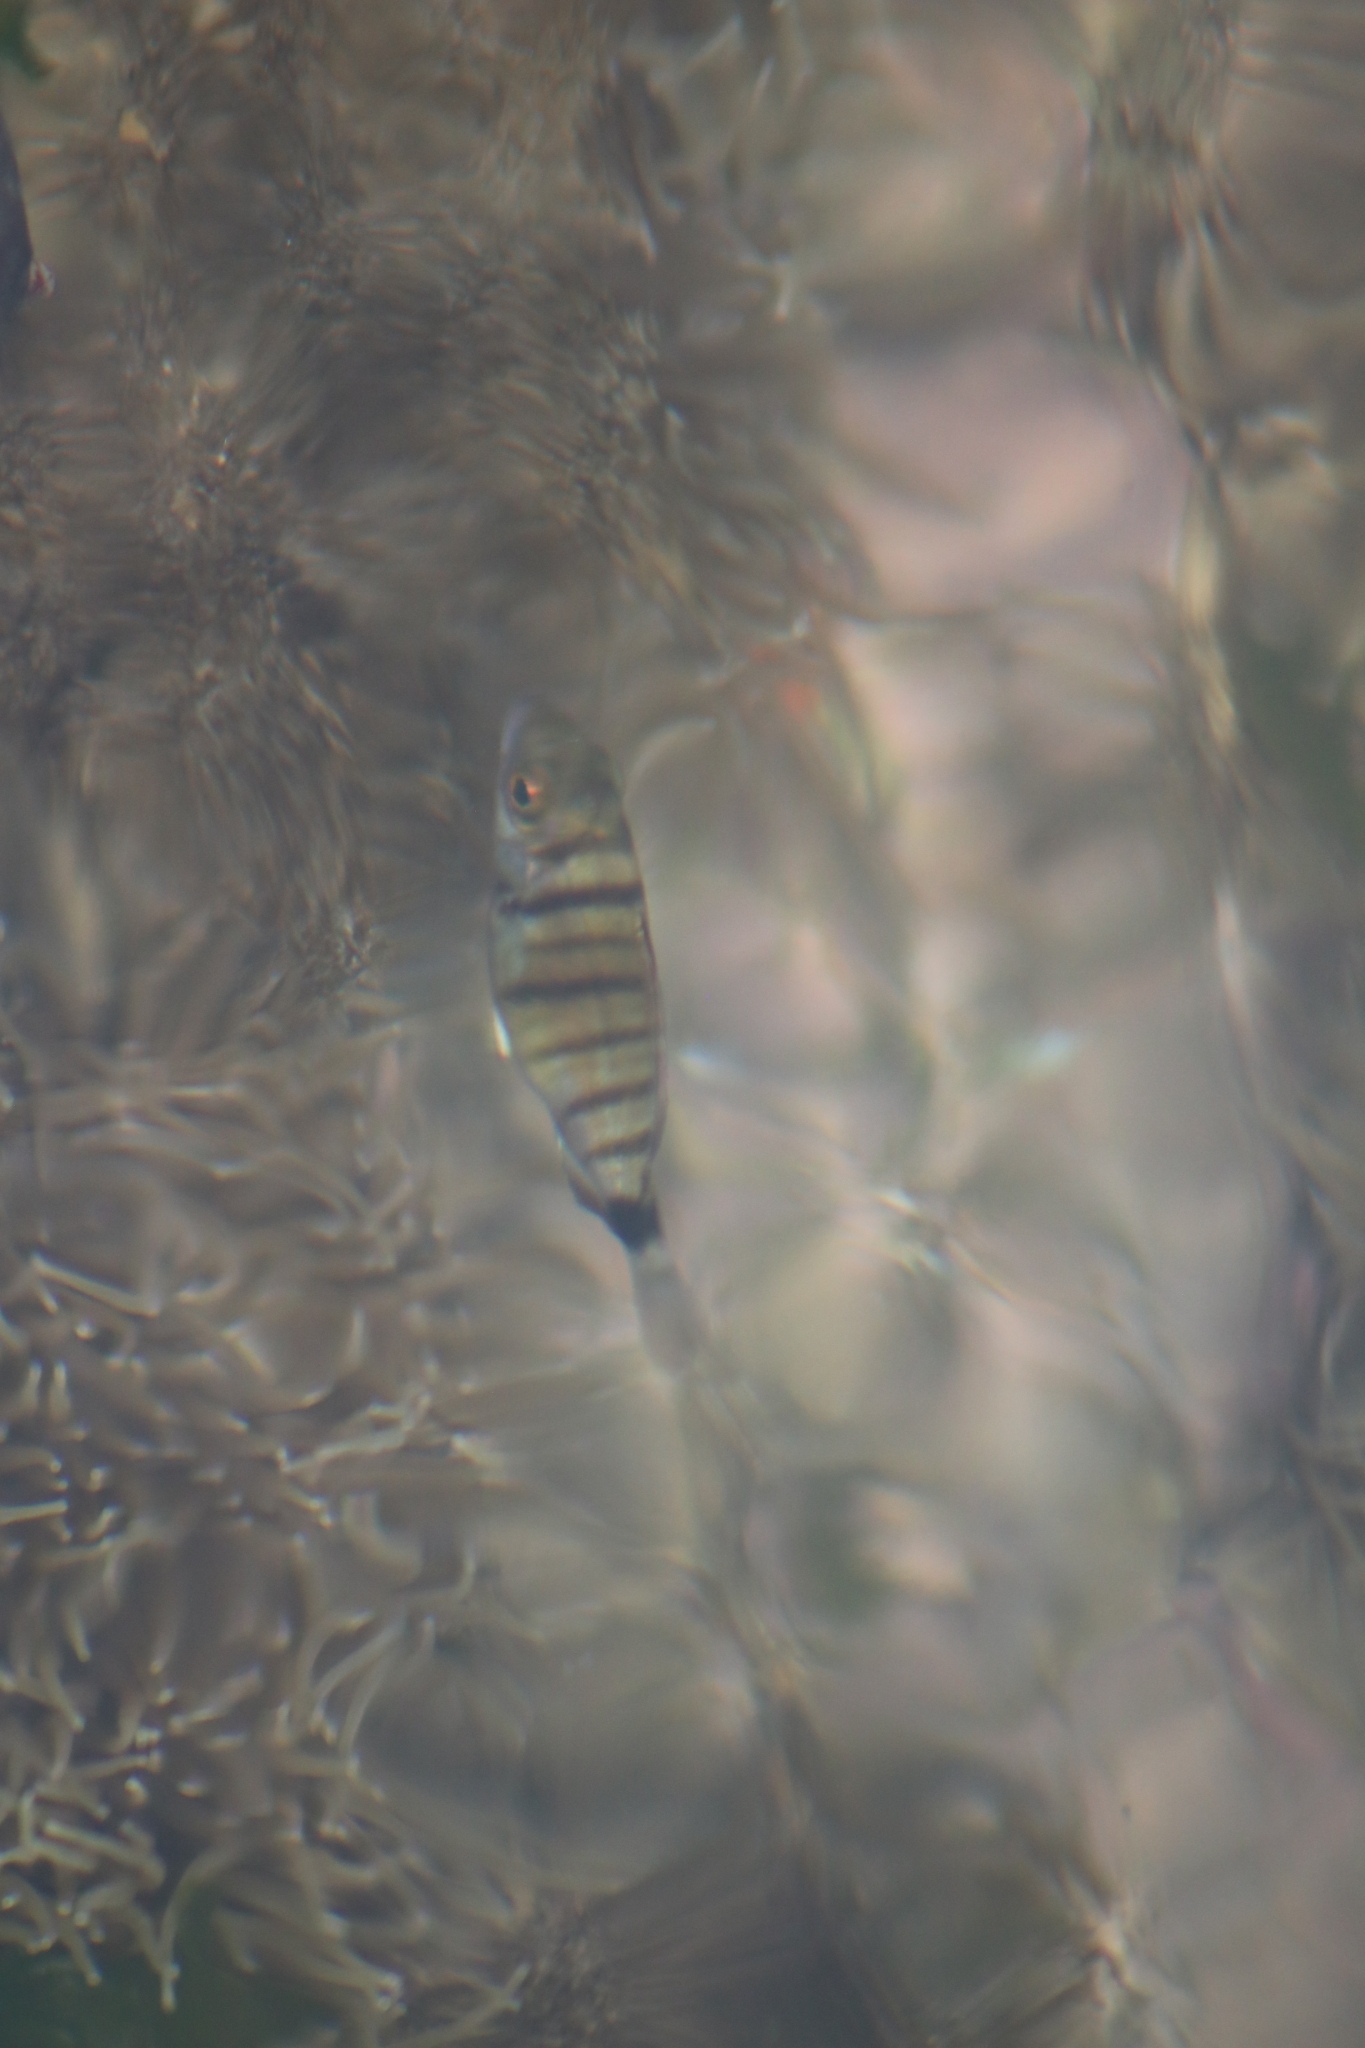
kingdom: Animalia
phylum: Chordata
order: Perciformes
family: Sparidae
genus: Diplodus
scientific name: Diplodus puntazzo
